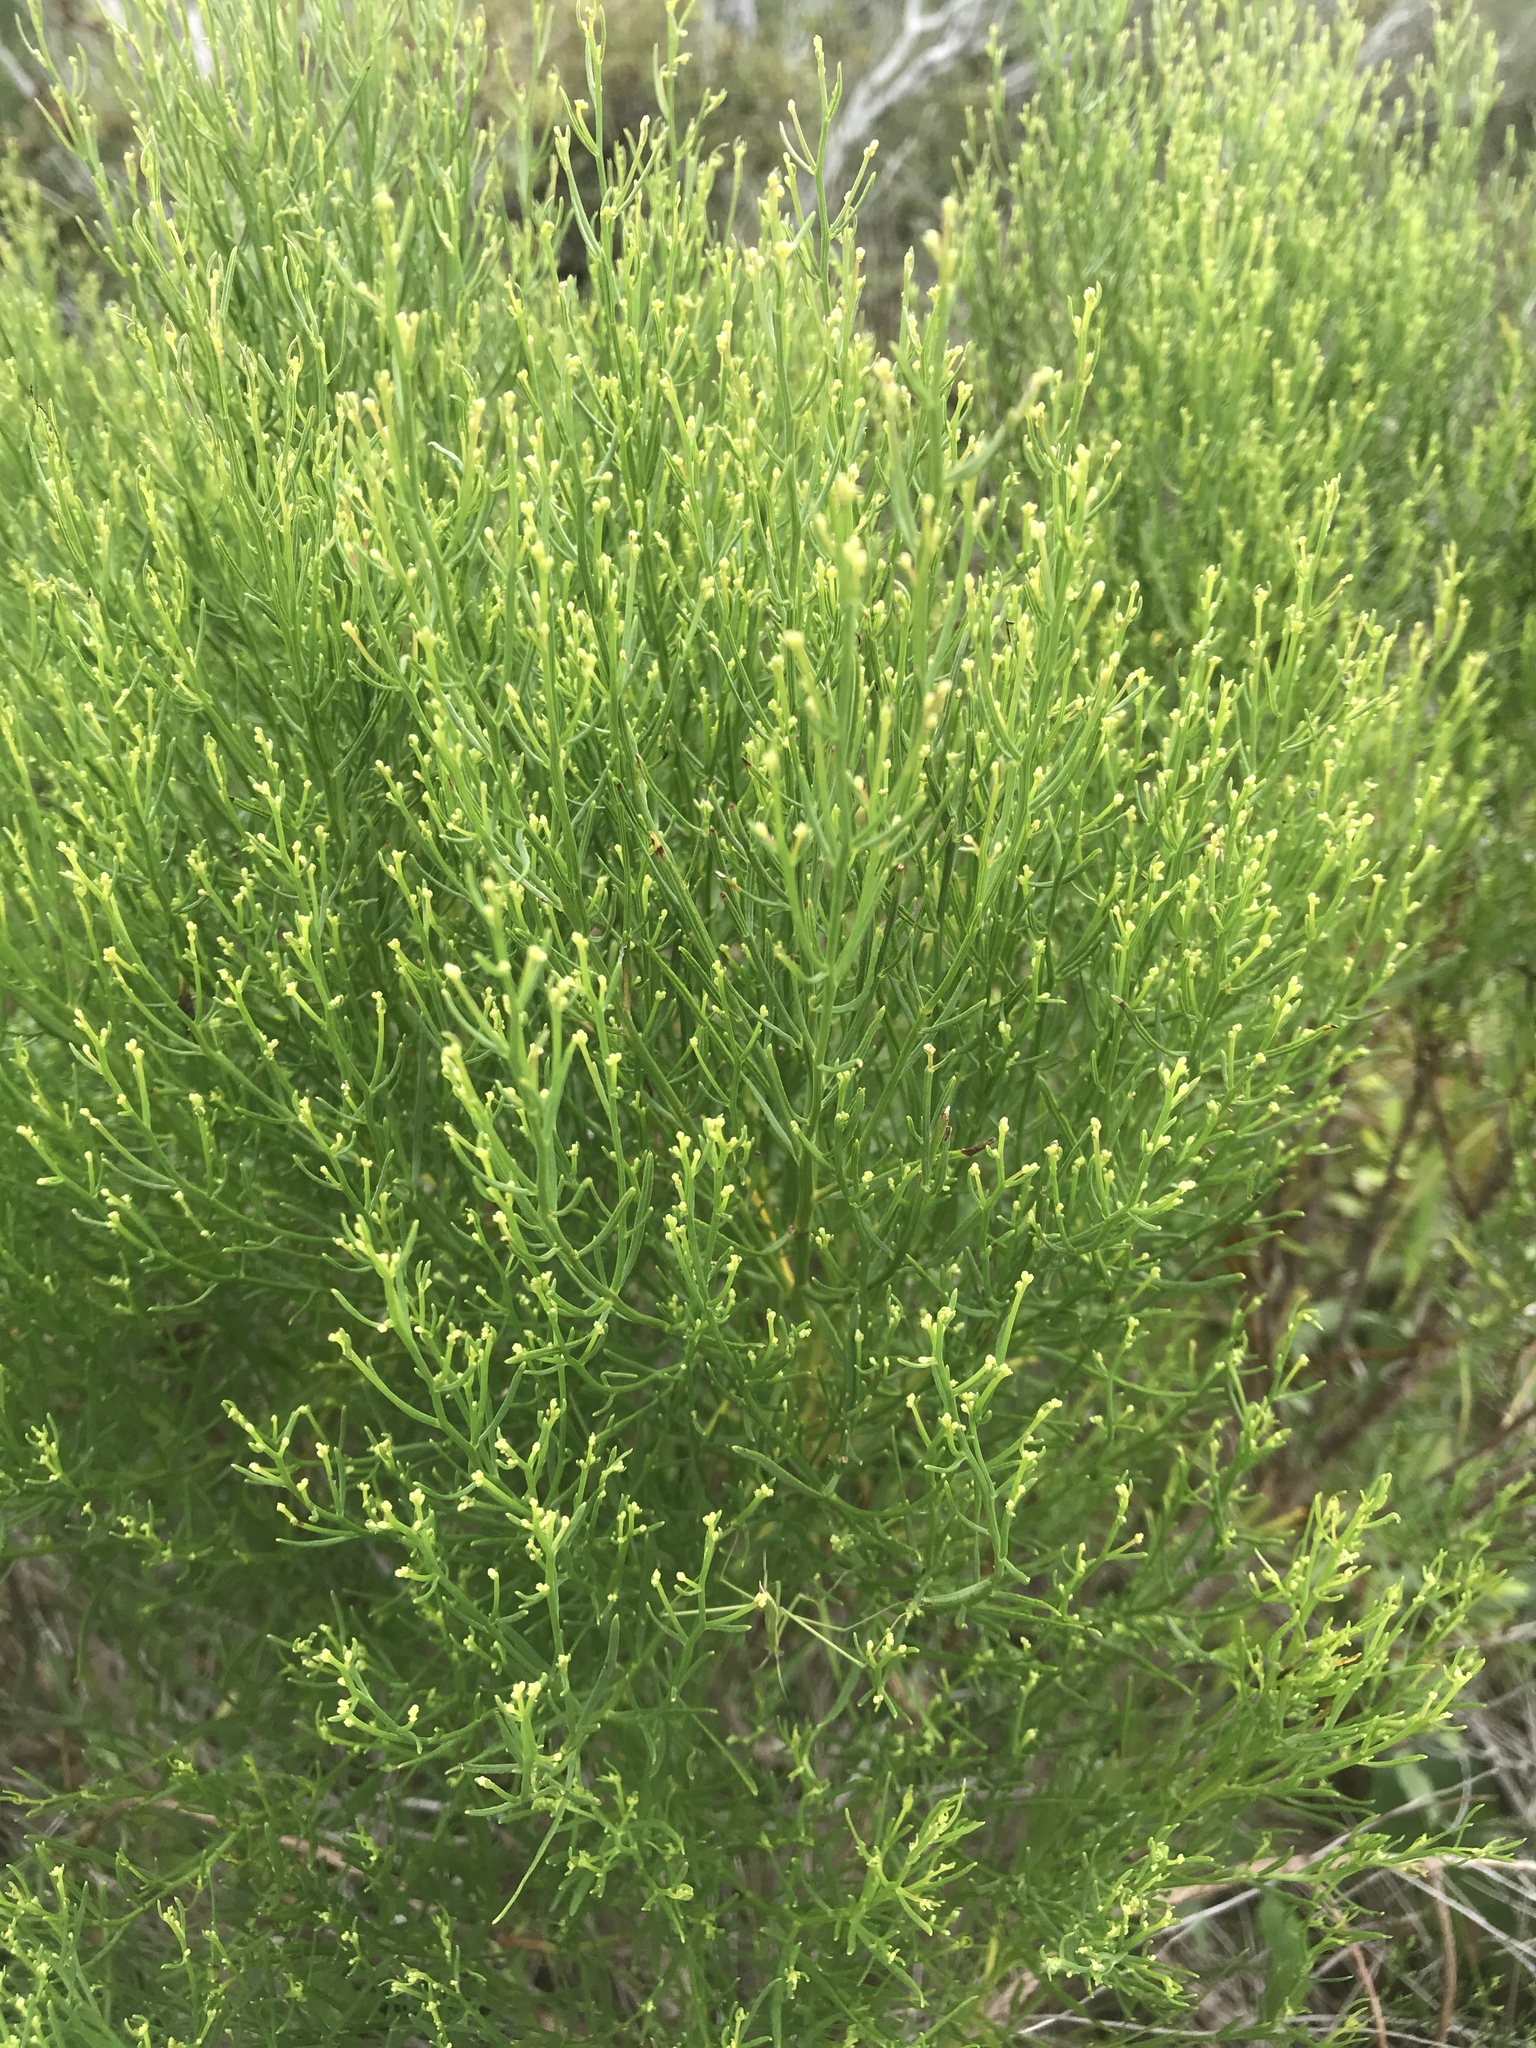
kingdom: Plantae
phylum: Tracheophyta
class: Magnoliopsida
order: Asterales
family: Asteraceae
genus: Baccharis
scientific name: Baccharis angustifolia
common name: Narrow-leaf baccharis
